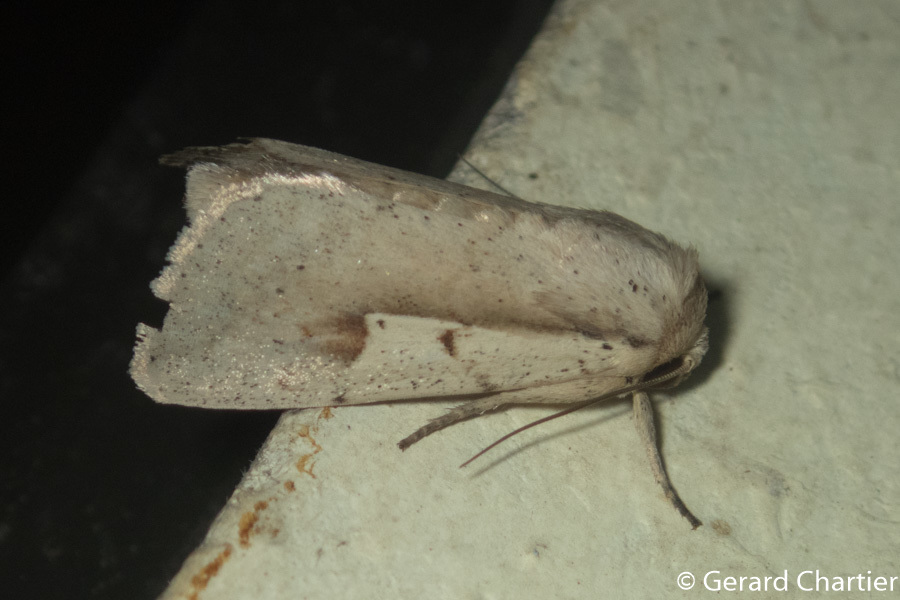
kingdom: Animalia
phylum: Arthropoda
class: Insecta
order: Lepidoptera
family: Noctuidae
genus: Leucania
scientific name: Leucania yu
